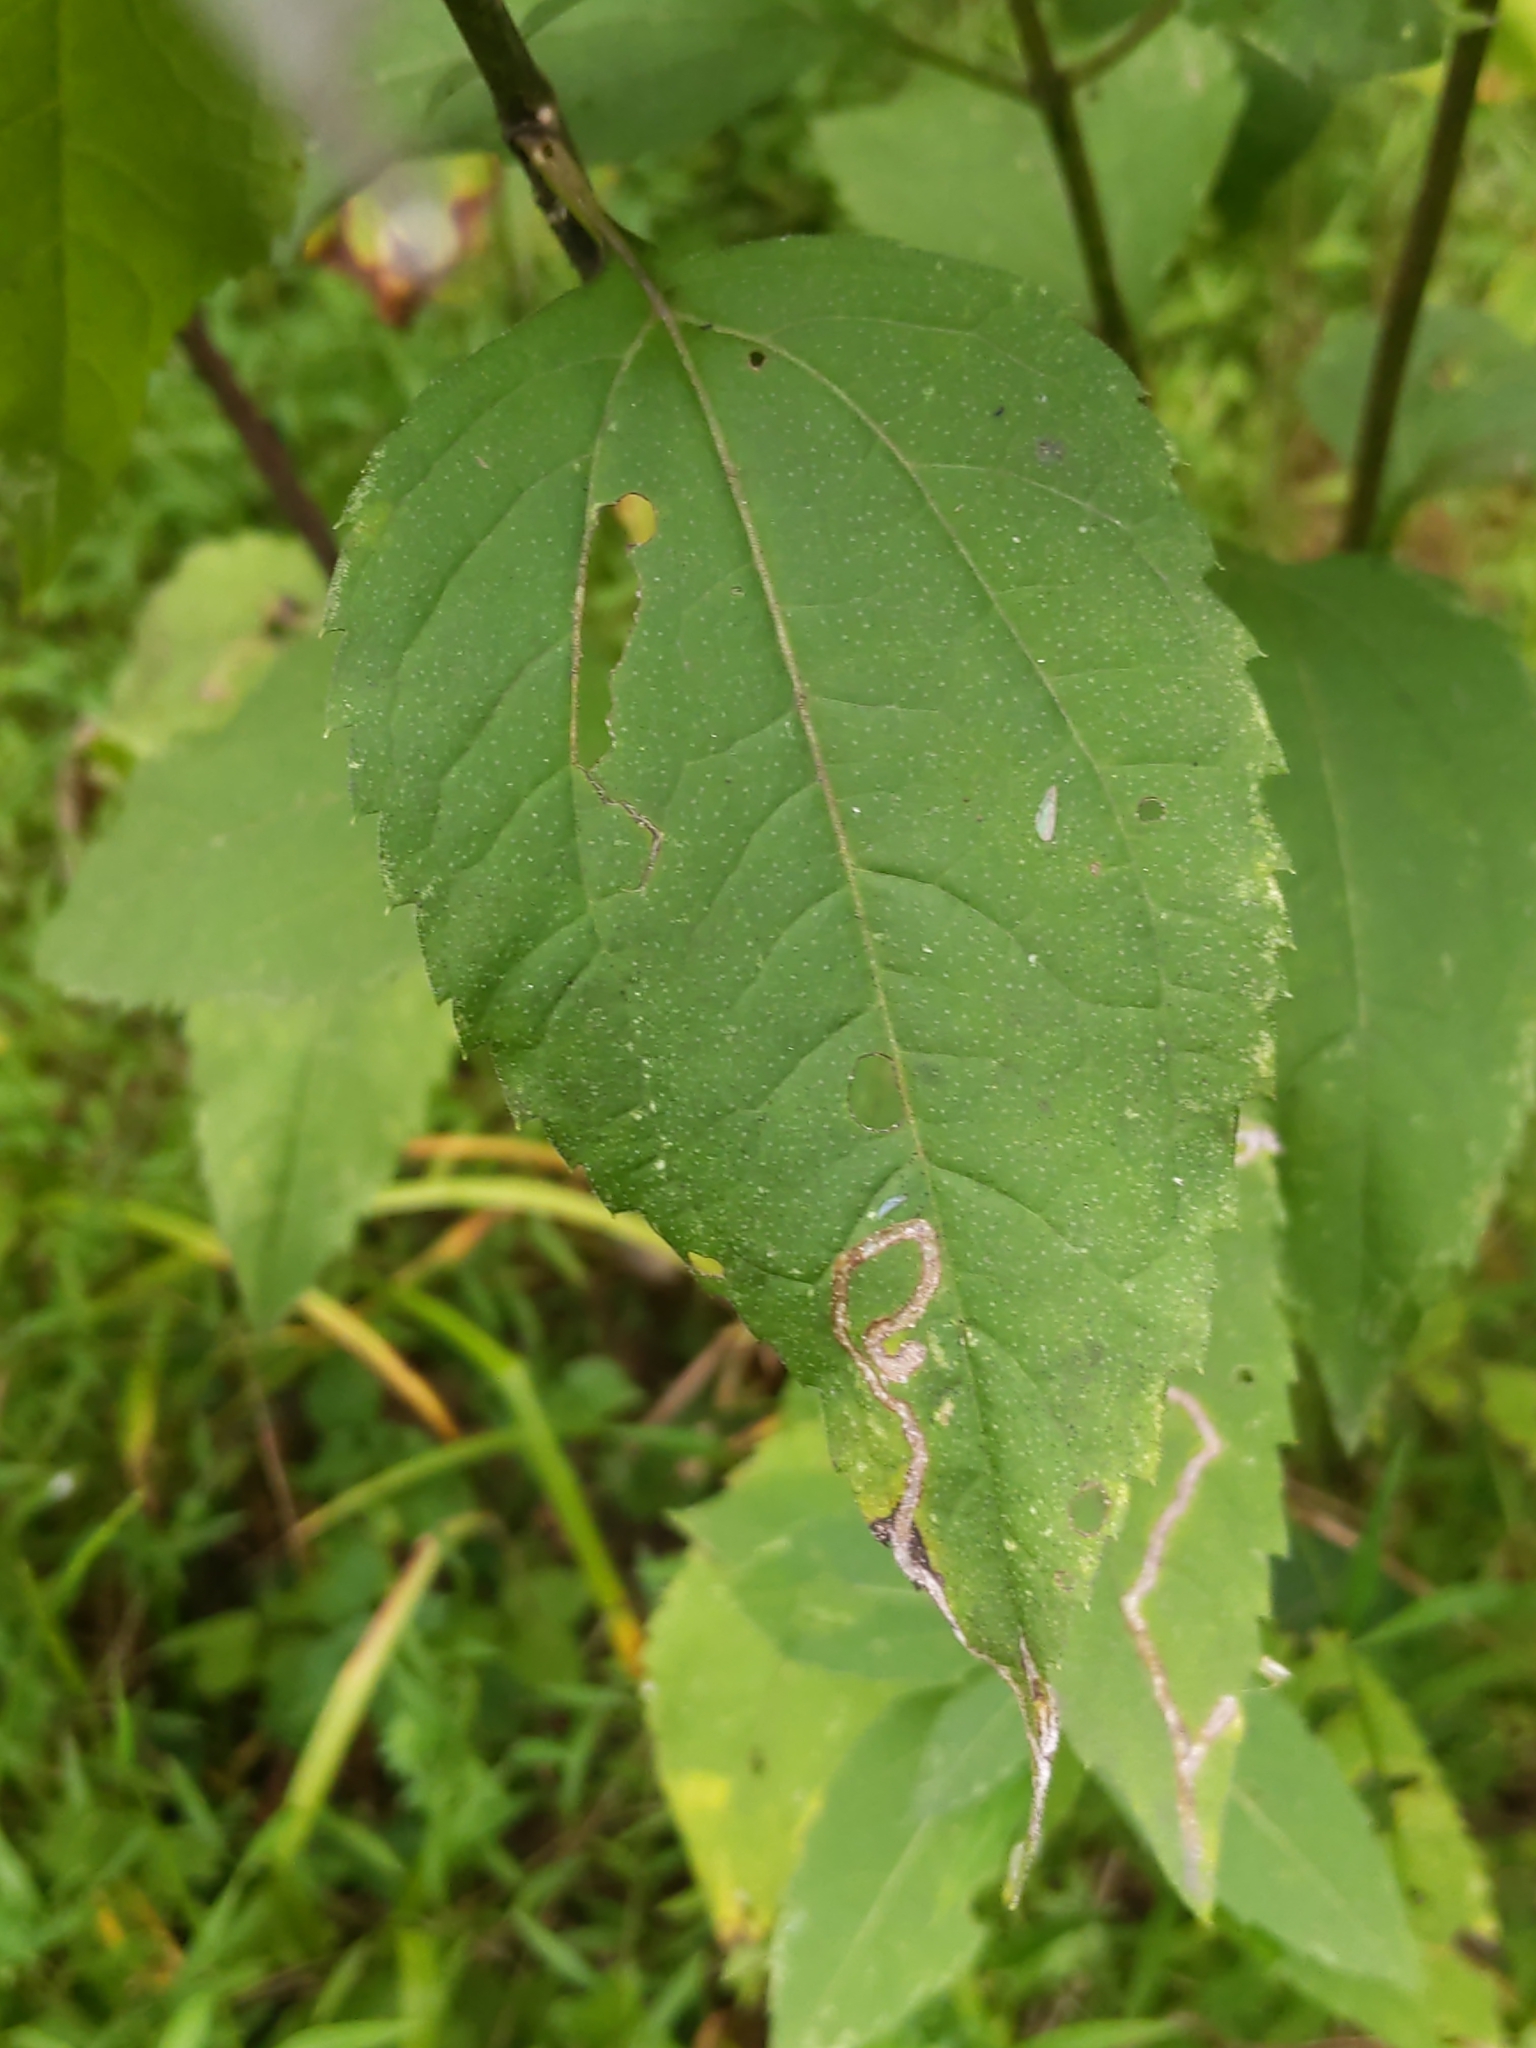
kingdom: Animalia
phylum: Arthropoda
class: Insecta
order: Diptera
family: Agromyzidae
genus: Liriomyza
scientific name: Liriomyza
